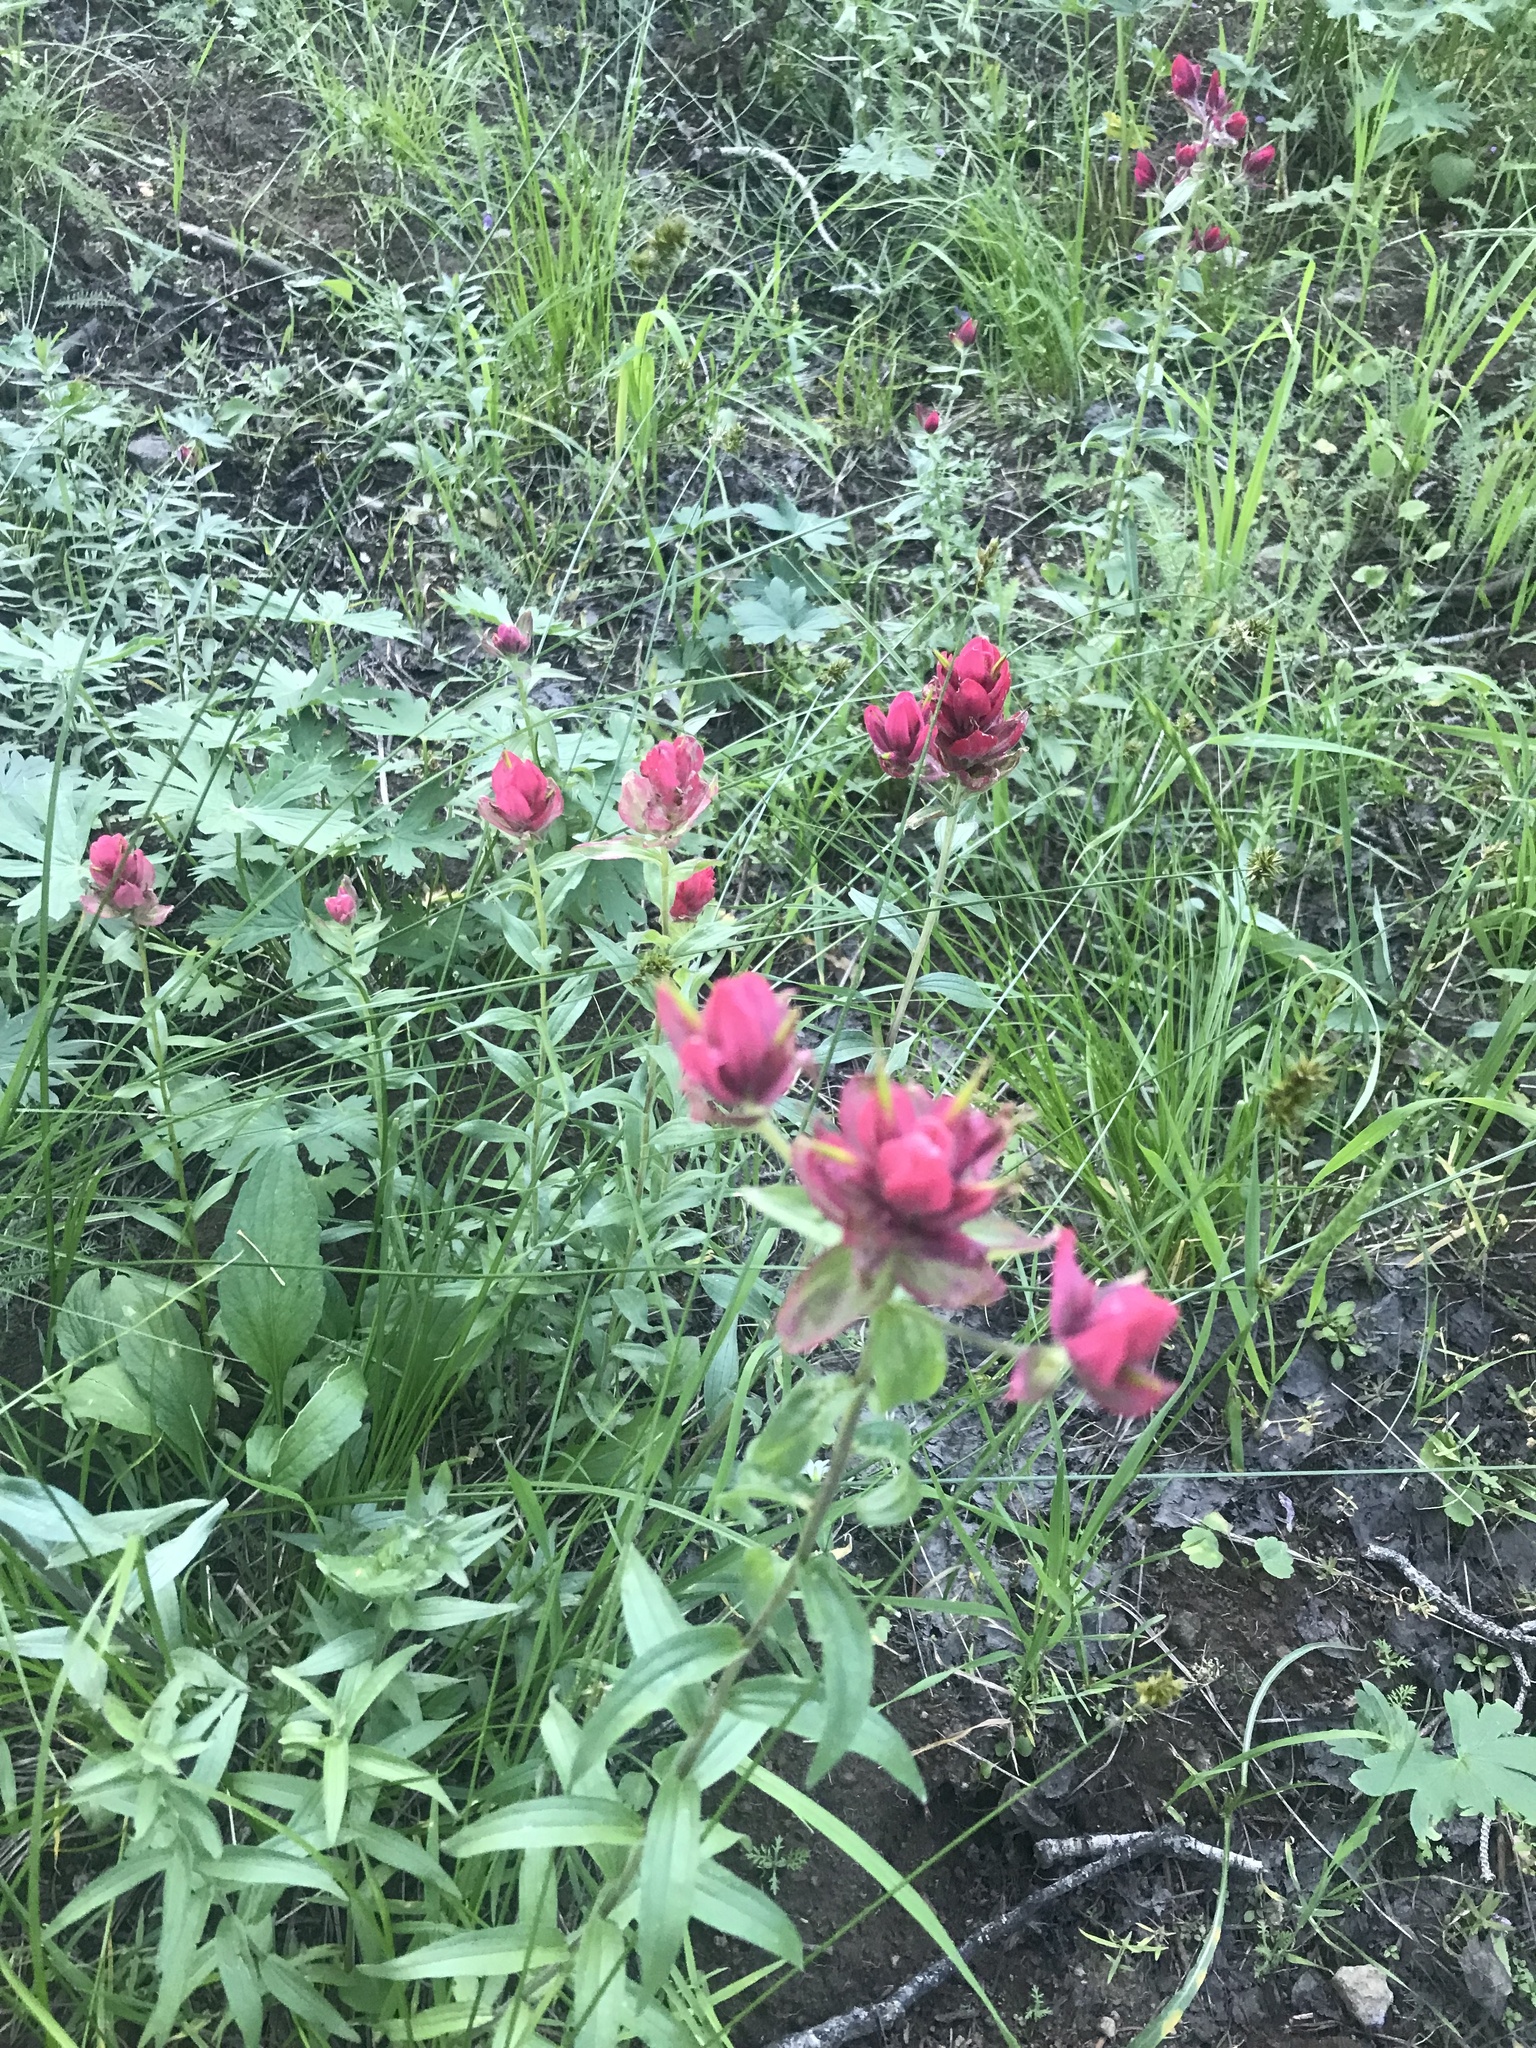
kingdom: Plantae
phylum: Tracheophyta
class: Magnoliopsida
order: Lamiales
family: Orobanchaceae
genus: Castilleja
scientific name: Castilleja rhexifolia
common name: Rocky mountain paintbrush
